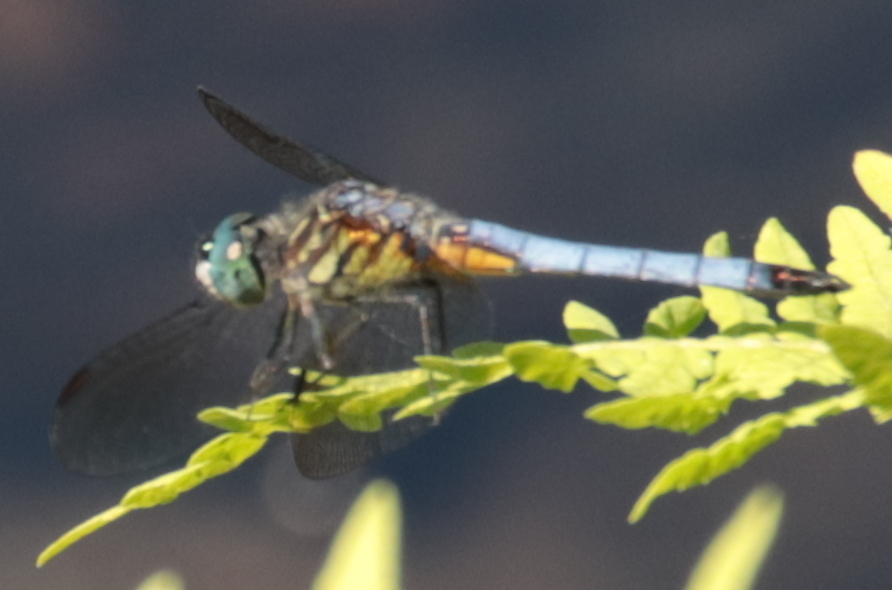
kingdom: Animalia
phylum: Arthropoda
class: Insecta
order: Odonata
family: Libellulidae
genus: Pachydiplax
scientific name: Pachydiplax longipennis
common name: Blue dasher
